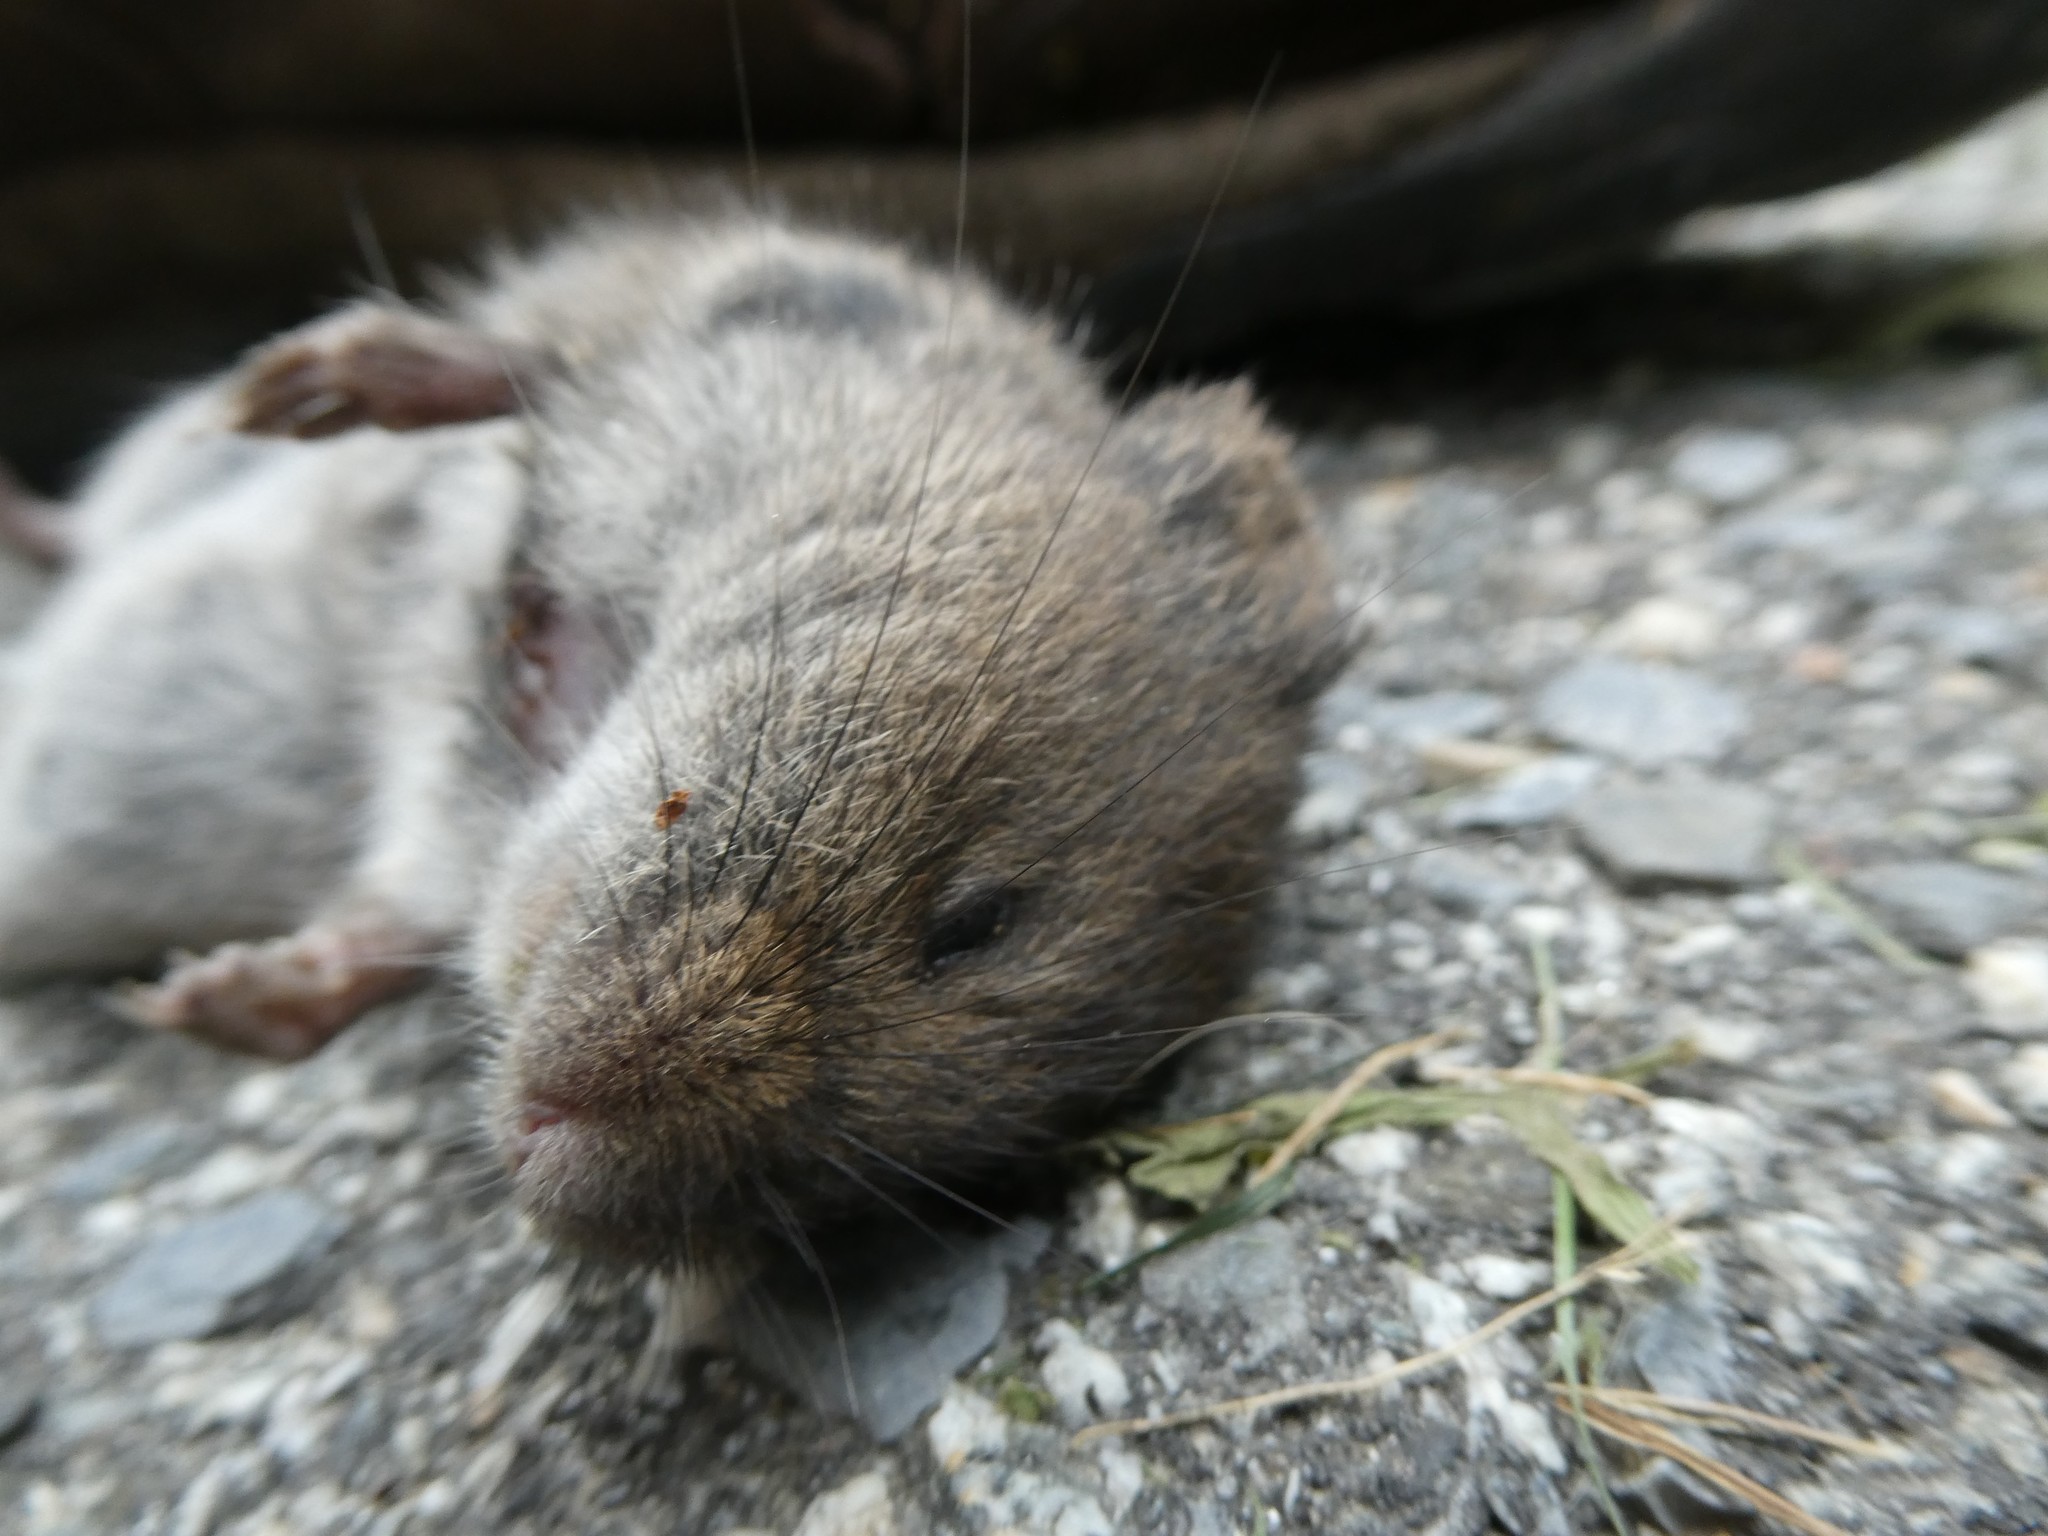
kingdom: Animalia
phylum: Chordata
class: Mammalia
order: Rodentia
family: Cricetidae
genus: Microtus
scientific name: Microtus pennsylvanicus
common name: Meadow vole
